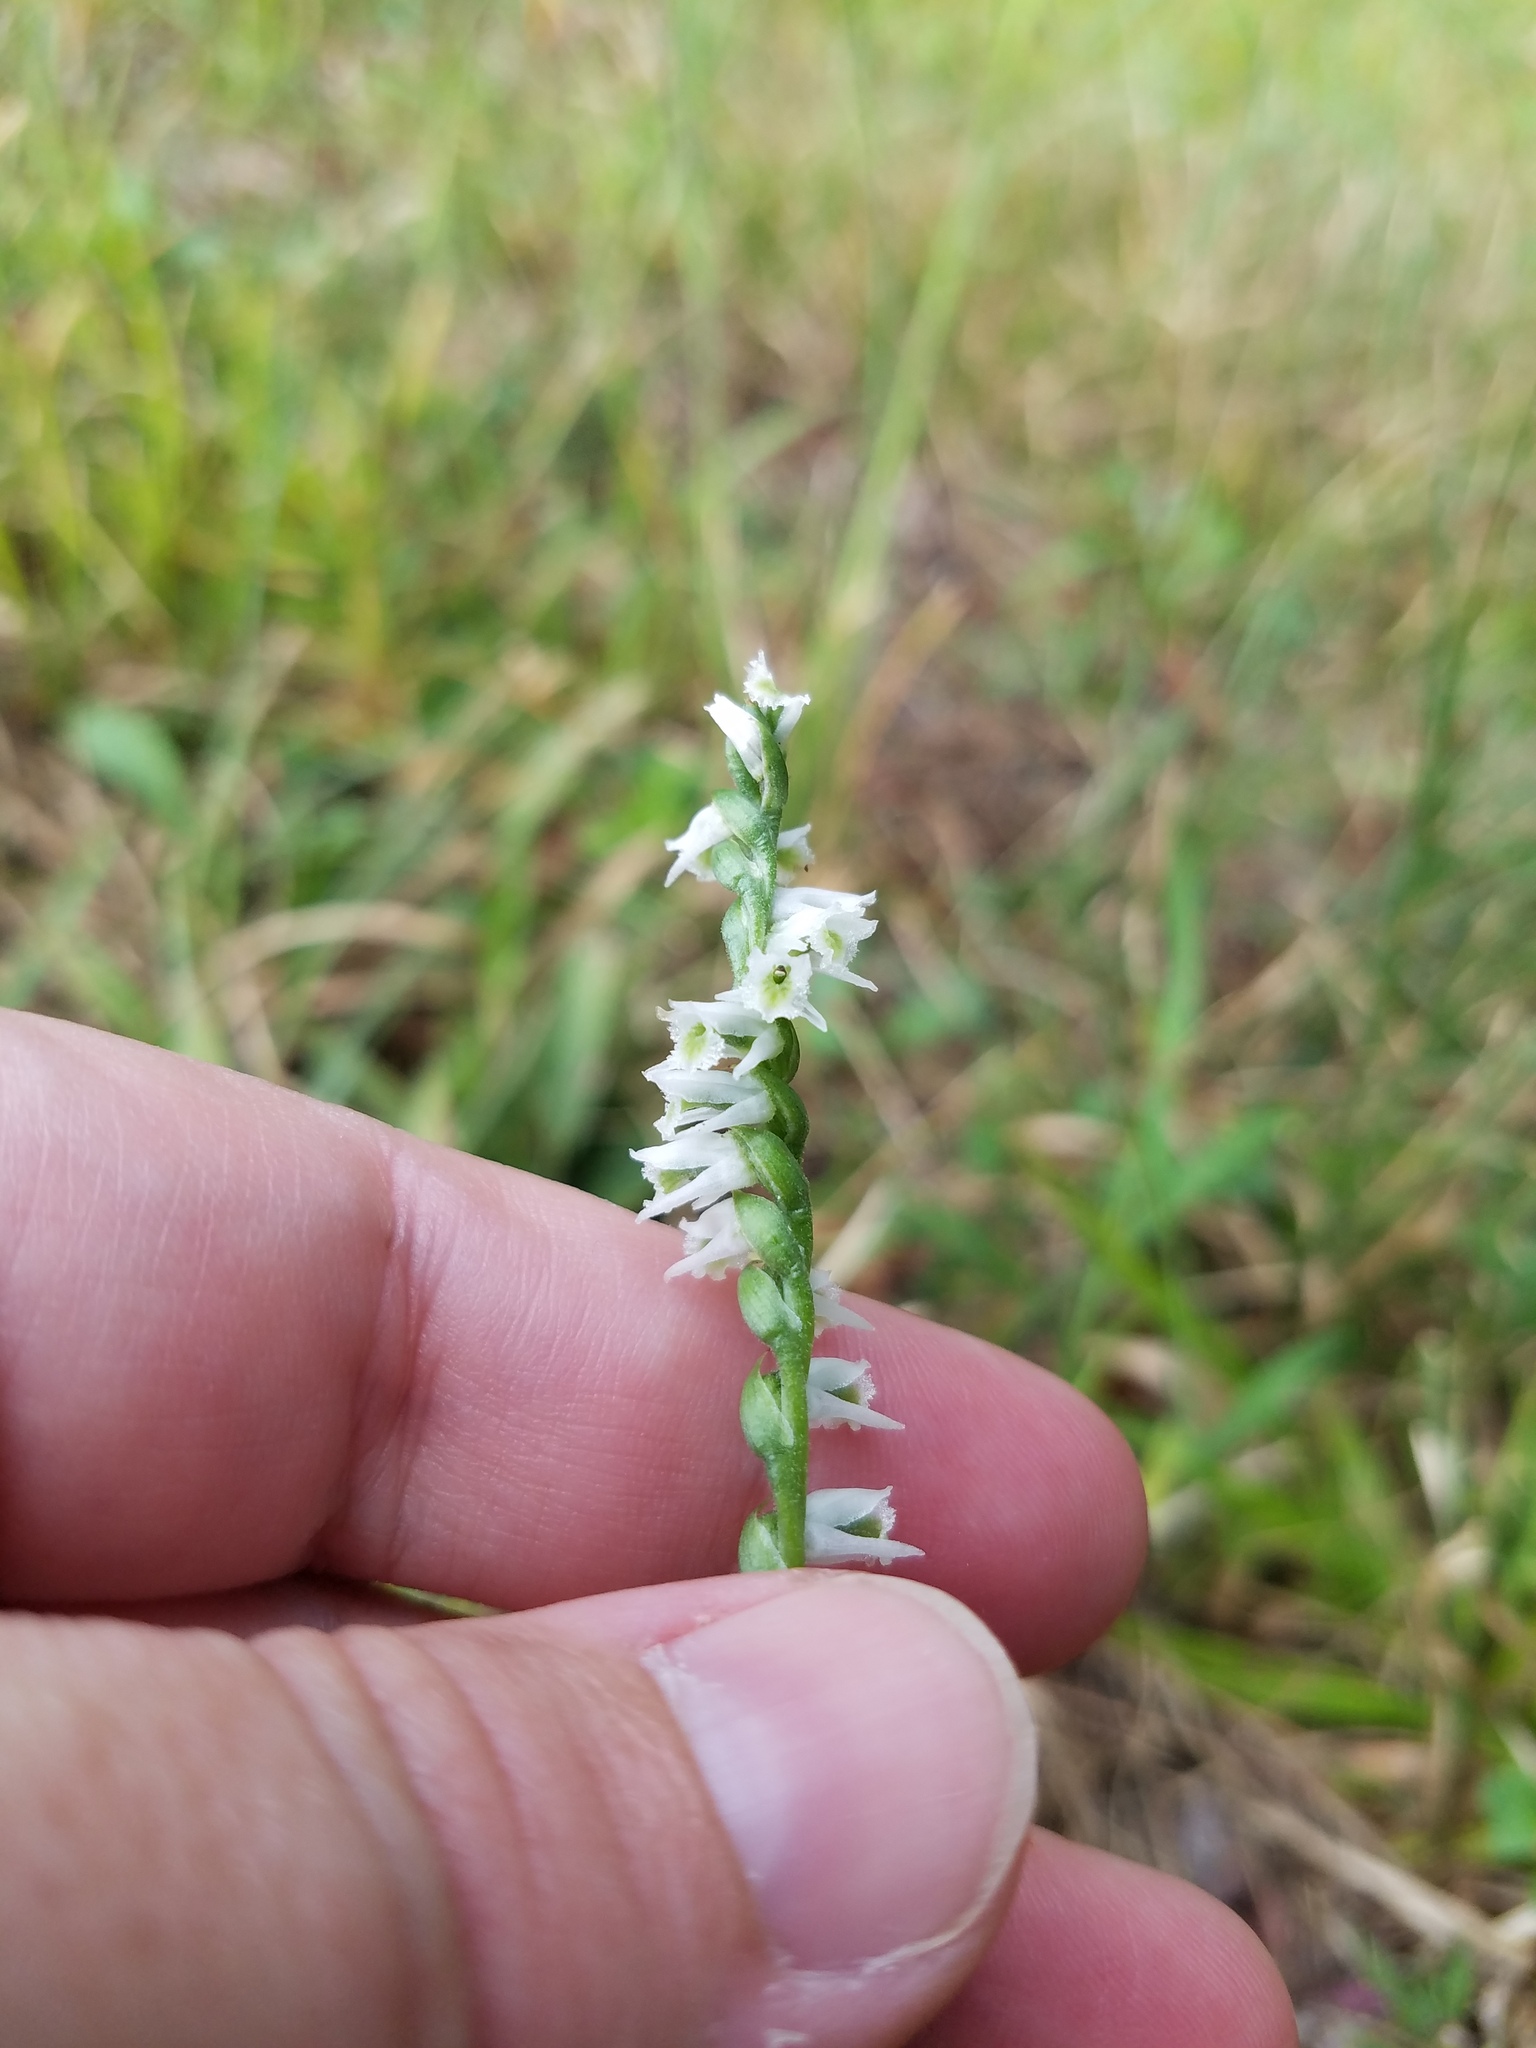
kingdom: Plantae
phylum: Tracheophyta
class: Liliopsida
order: Asparagales
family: Orchidaceae
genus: Spiranthes
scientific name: Spiranthes lacera
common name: Northern slender ladies'-tresses
